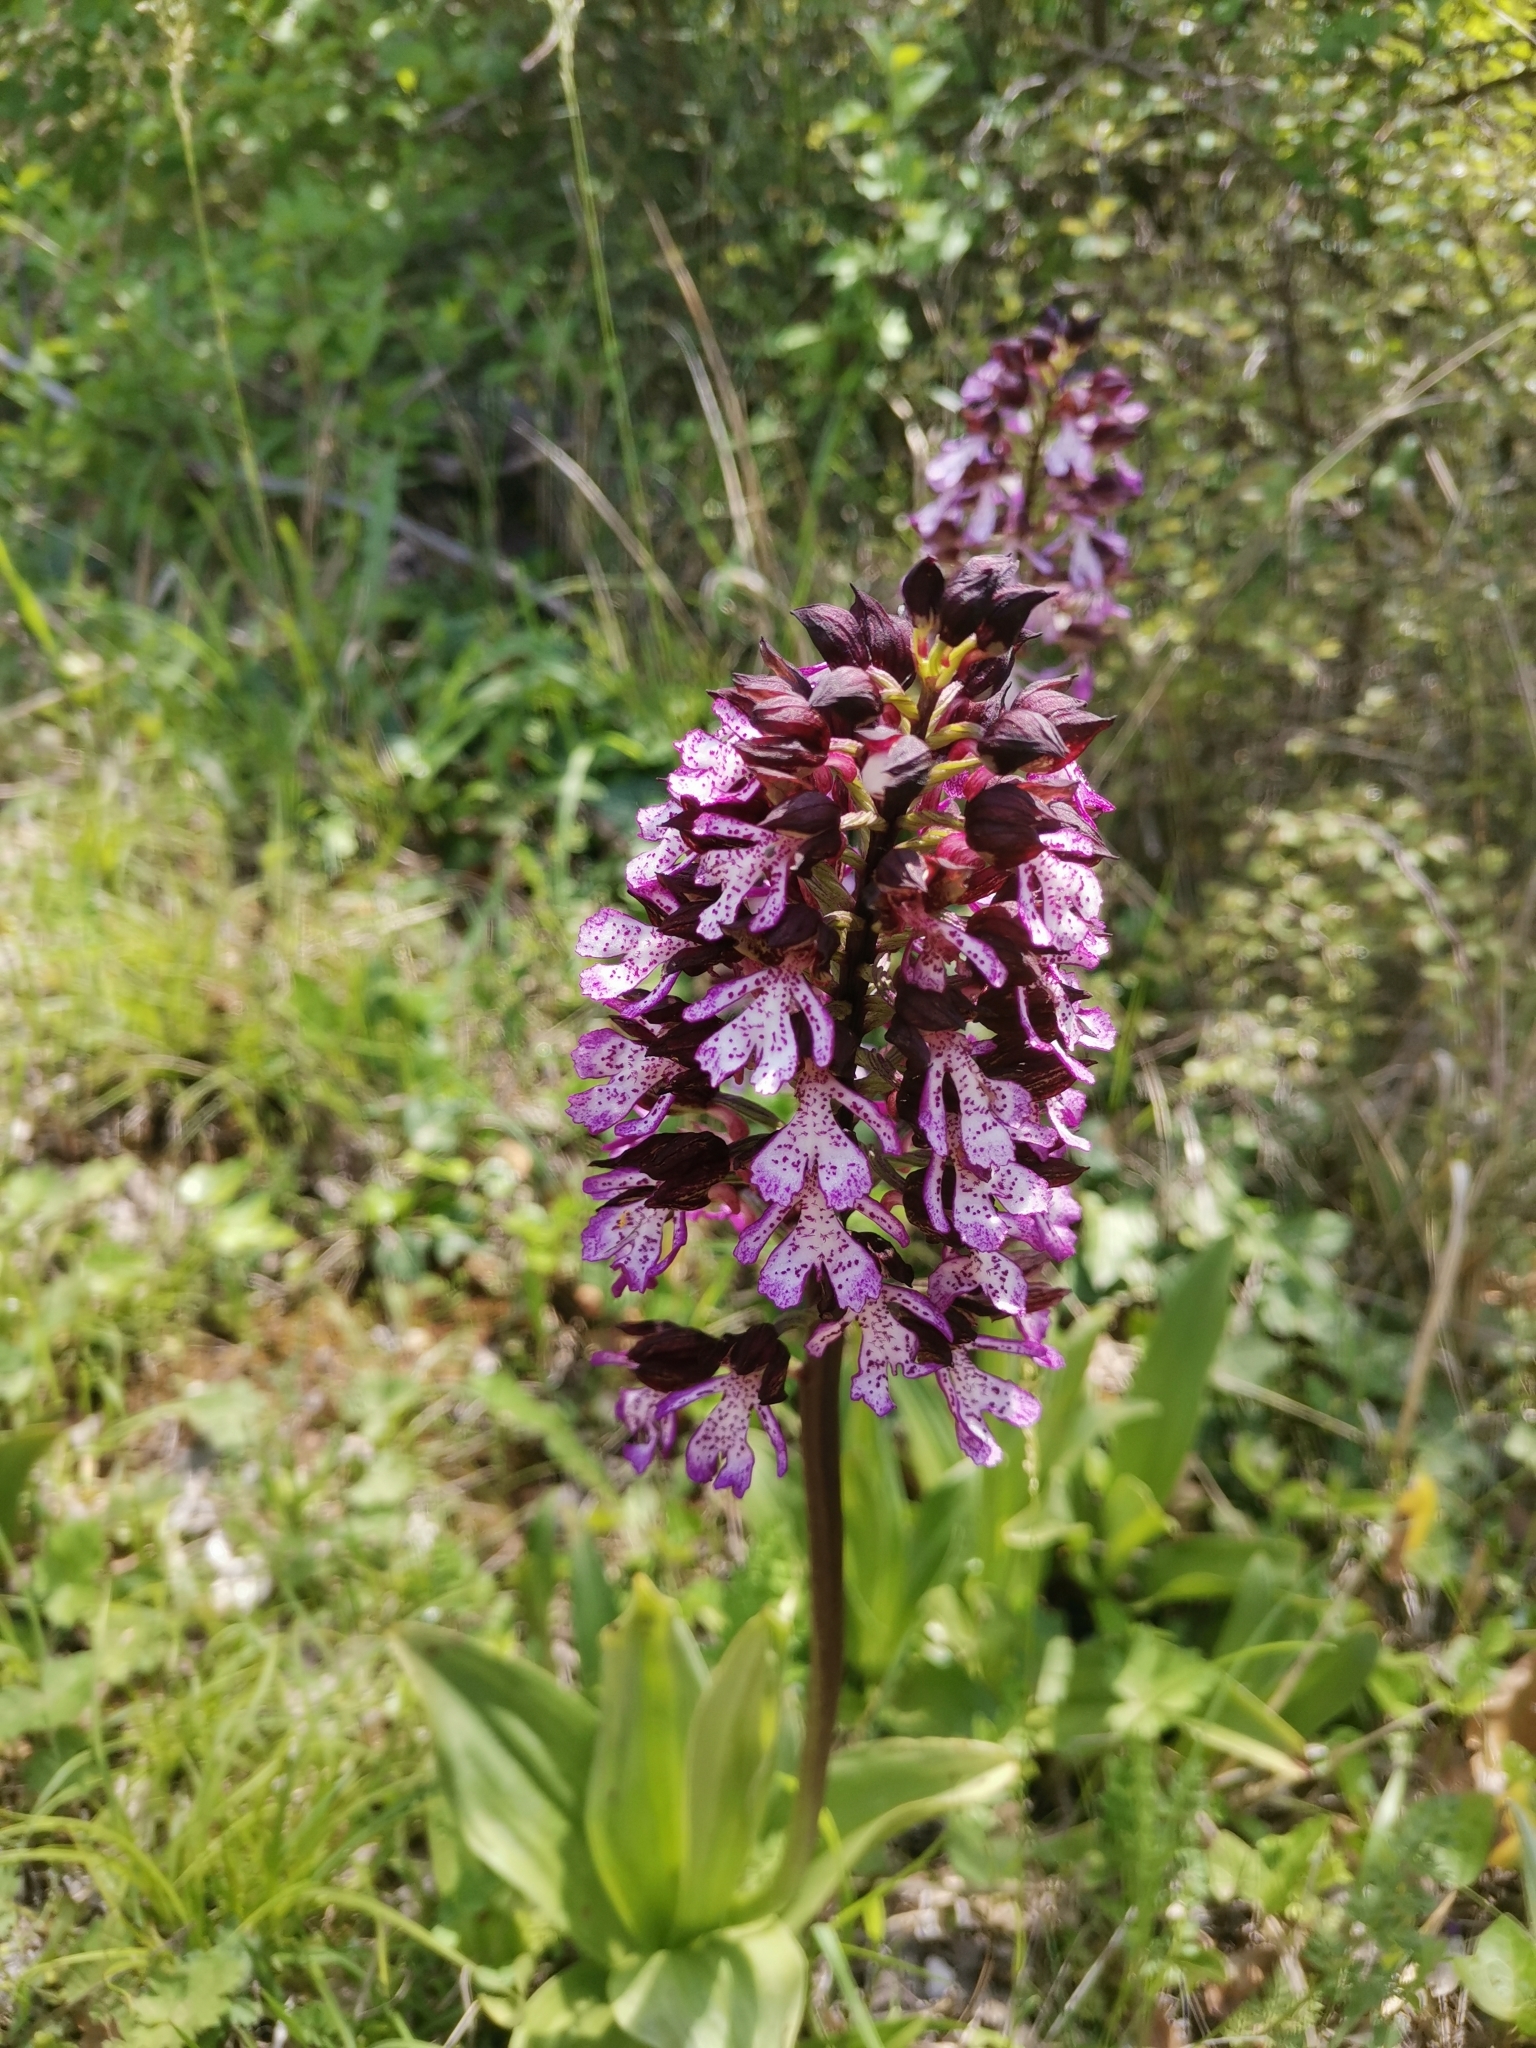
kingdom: Plantae
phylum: Tracheophyta
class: Liliopsida
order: Asparagales
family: Orchidaceae
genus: Orchis
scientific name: Orchis purpurea
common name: Lady orchid
